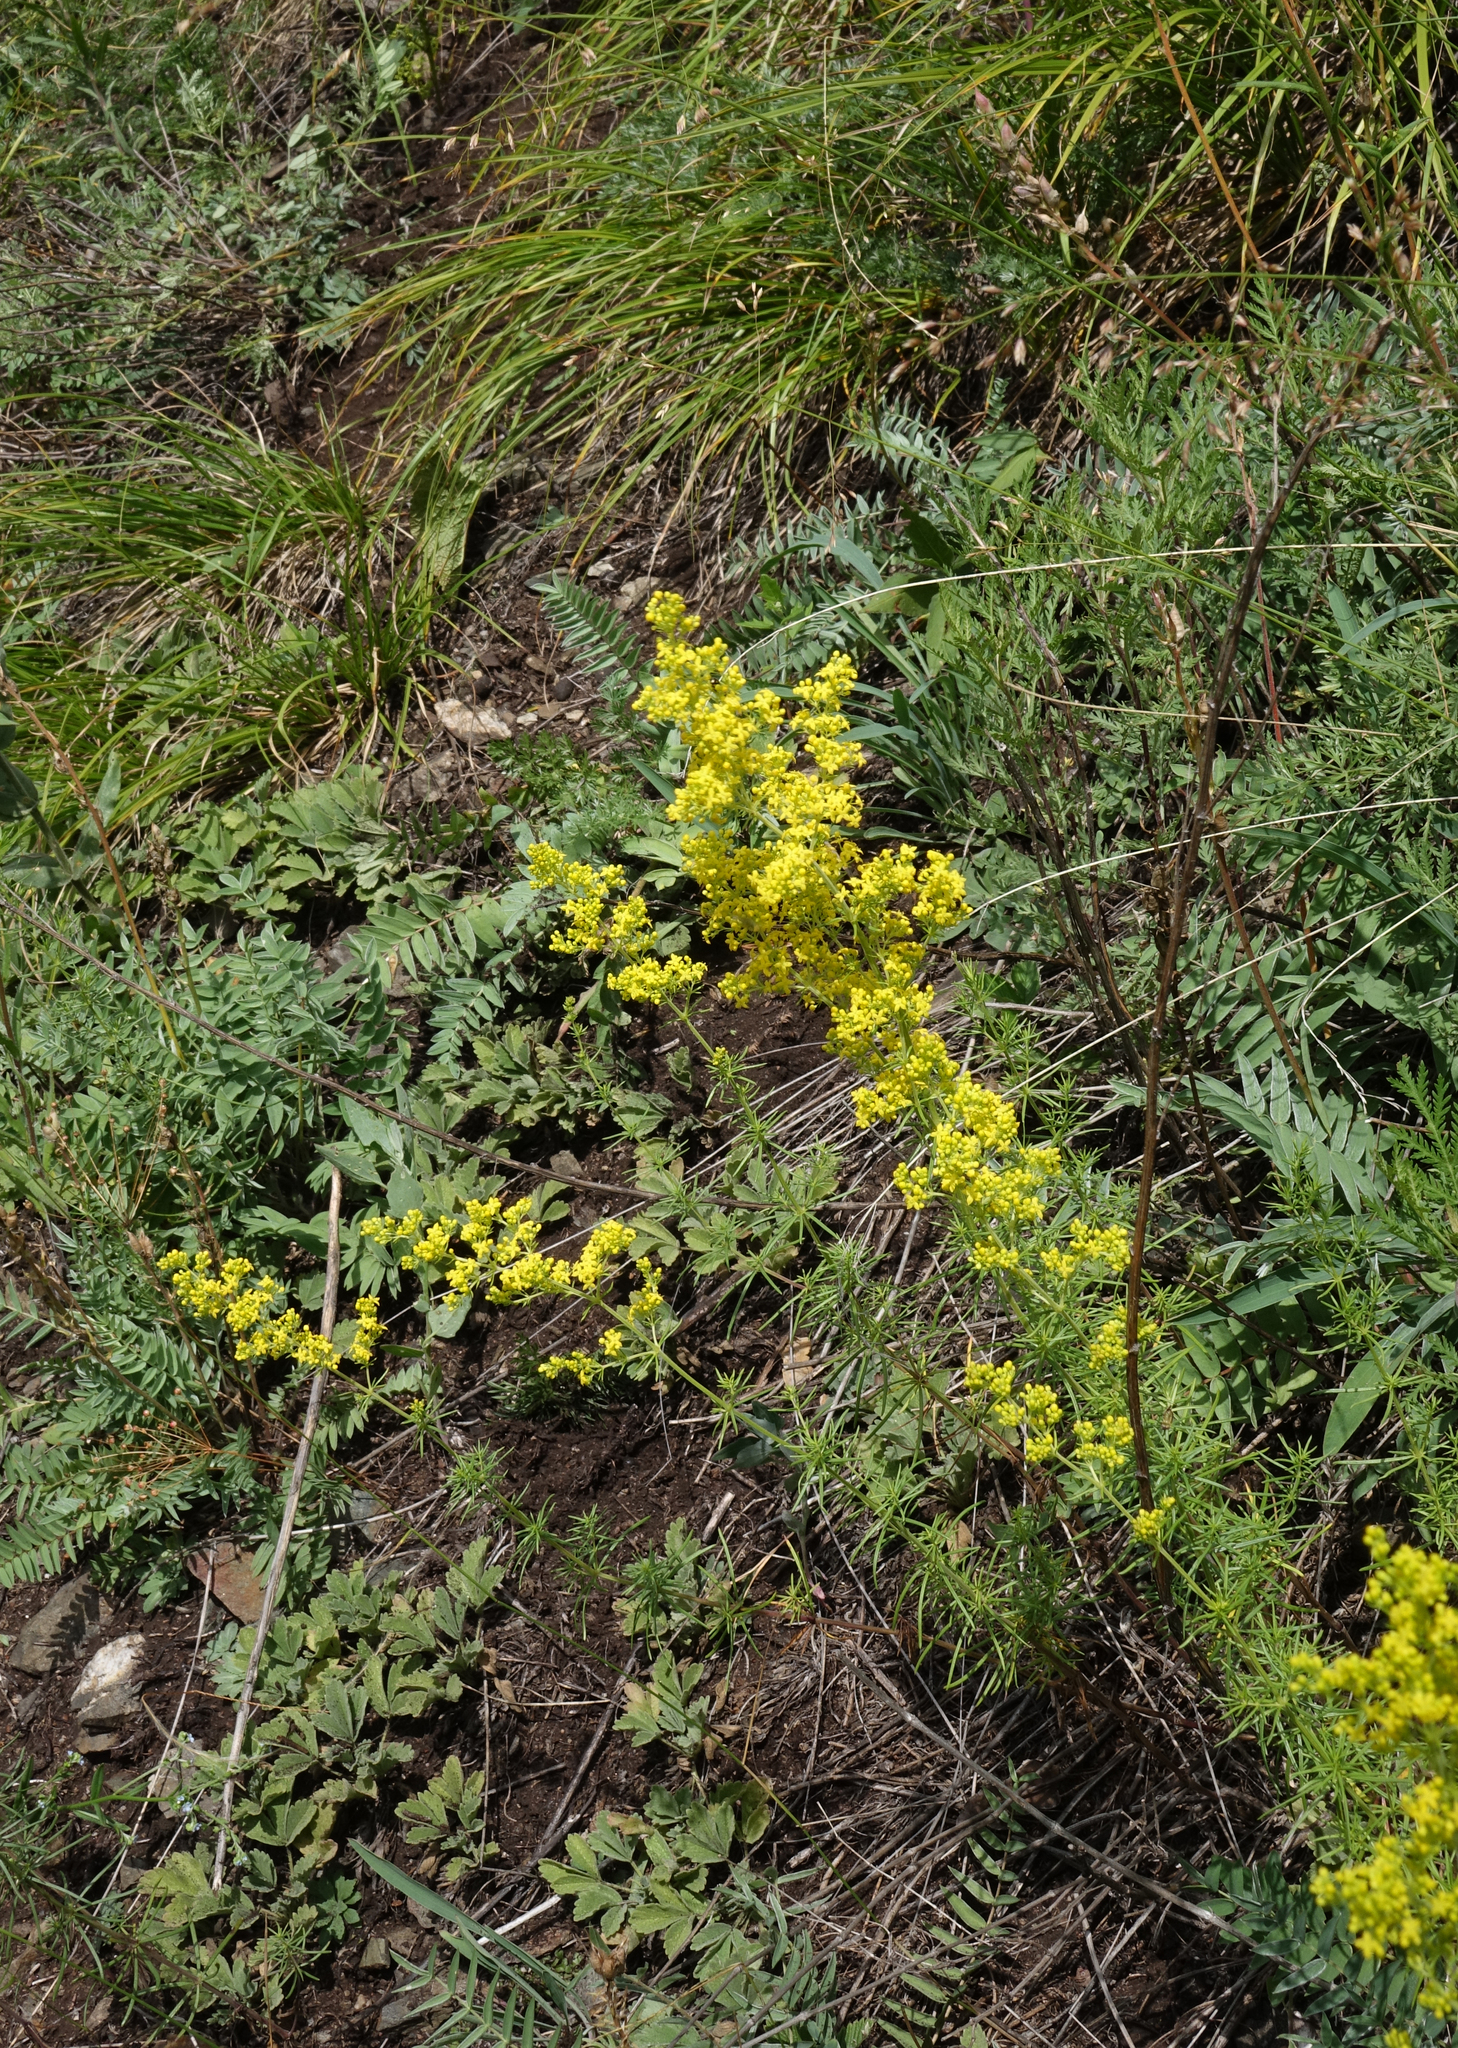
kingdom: Plantae
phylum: Tracheophyta
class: Magnoliopsida
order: Gentianales
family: Rubiaceae
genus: Galium
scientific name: Galium verum
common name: Lady's bedstraw
